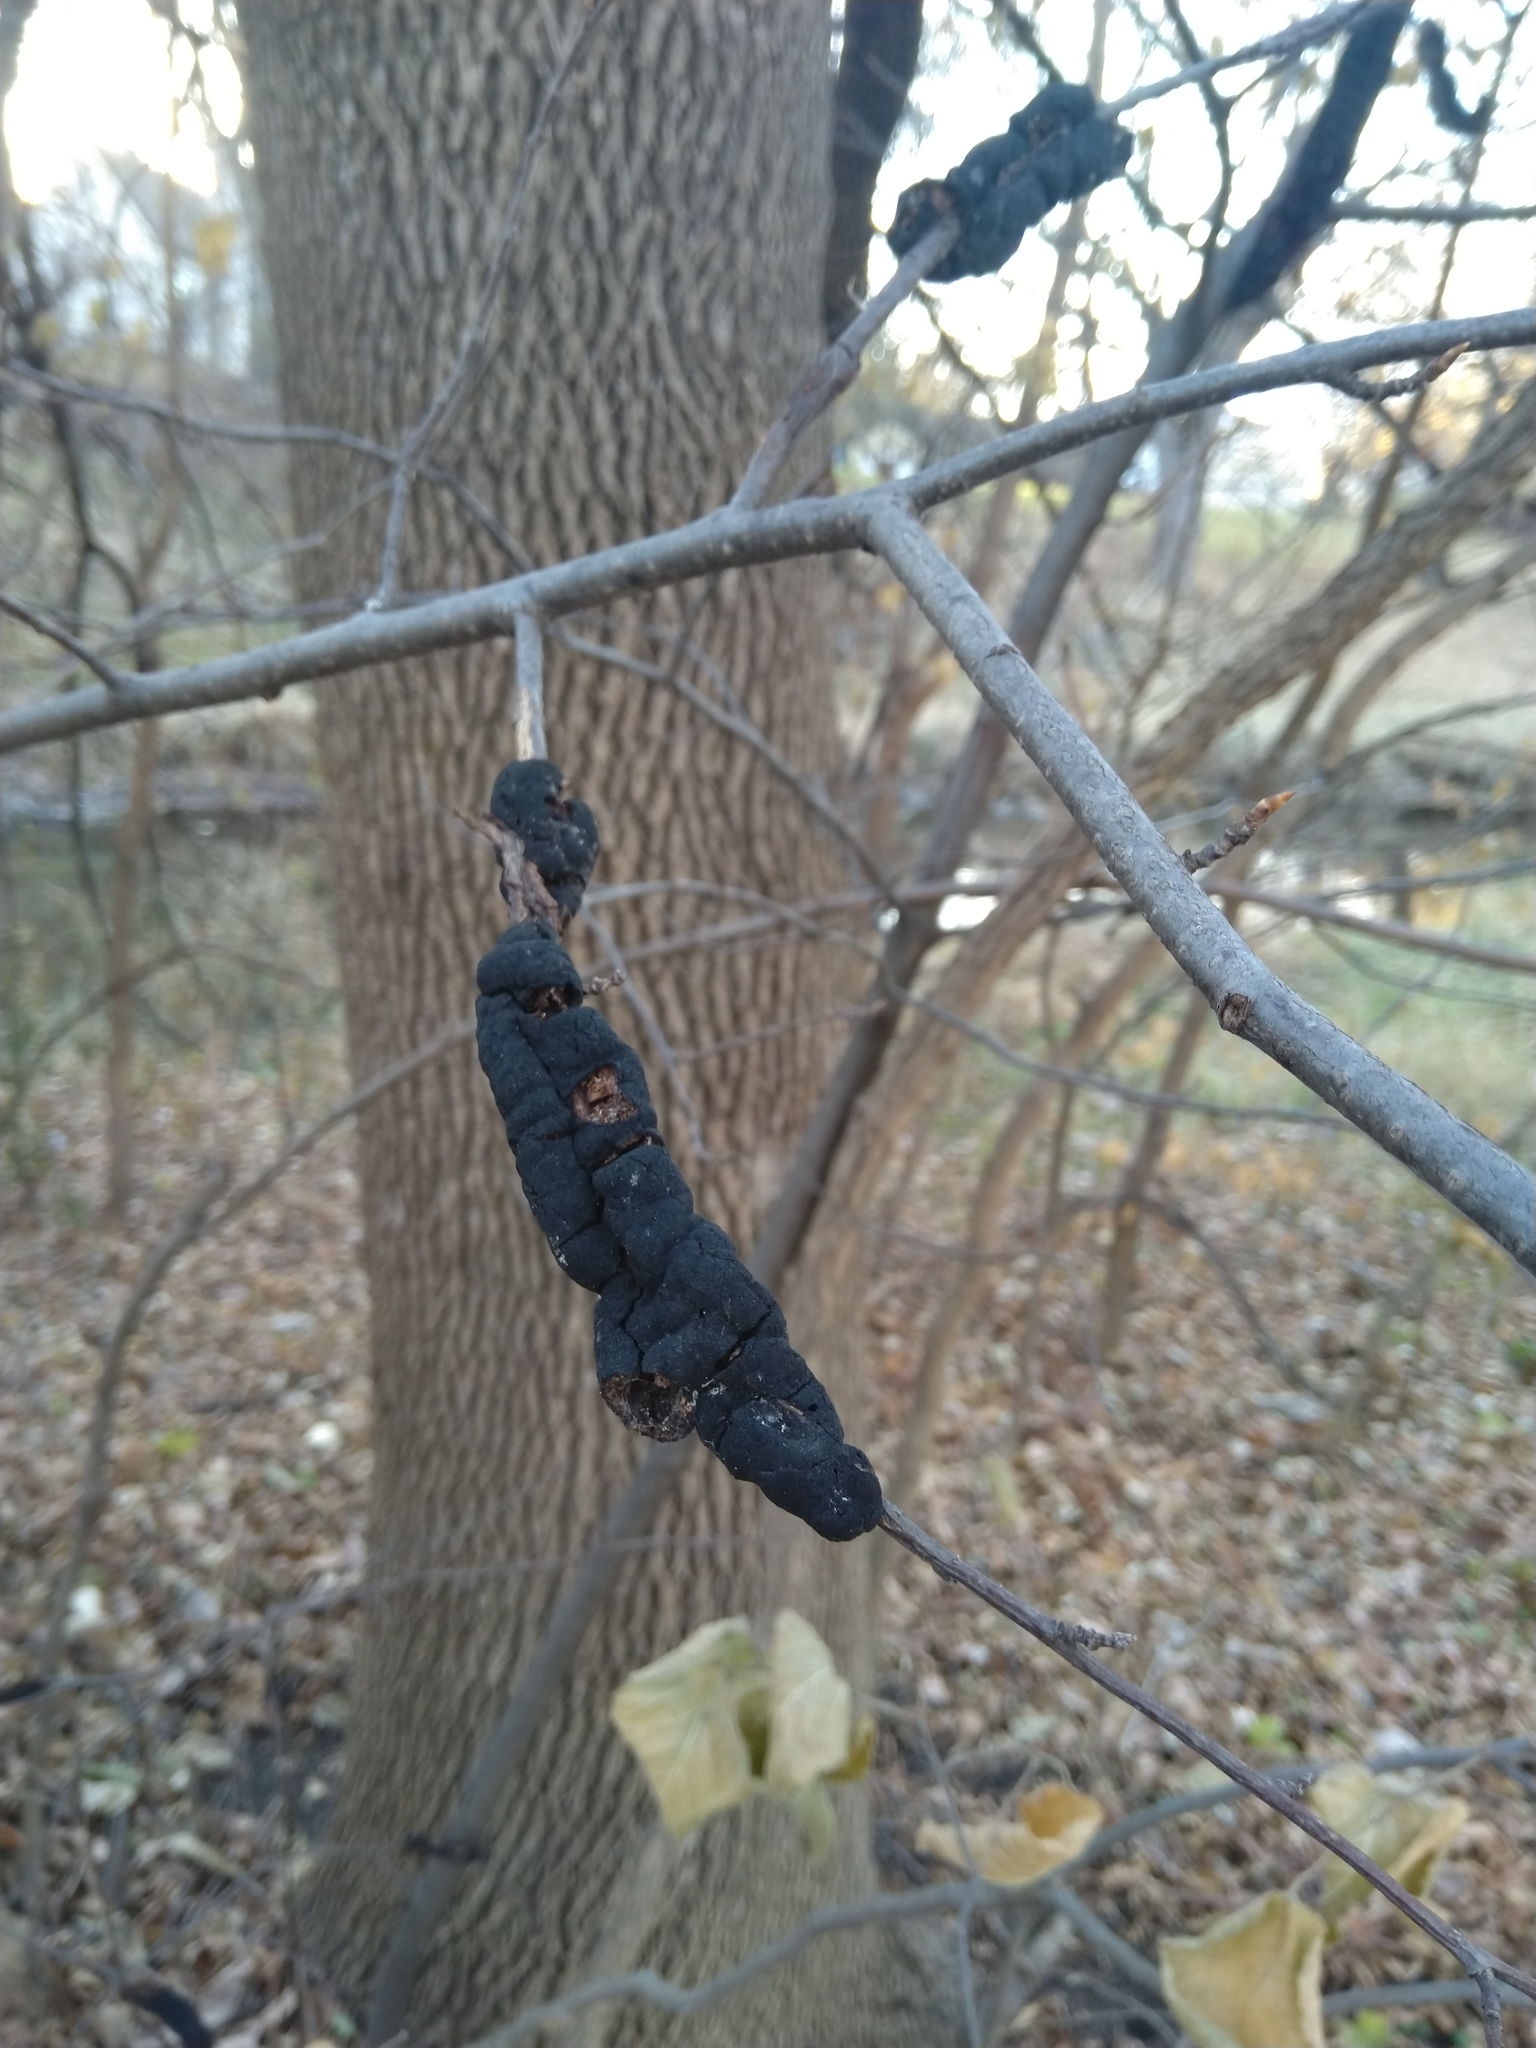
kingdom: Fungi
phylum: Ascomycota
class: Dothideomycetes
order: Venturiales
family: Venturiaceae
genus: Apiosporina
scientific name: Apiosporina morbosa
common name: Black knot
